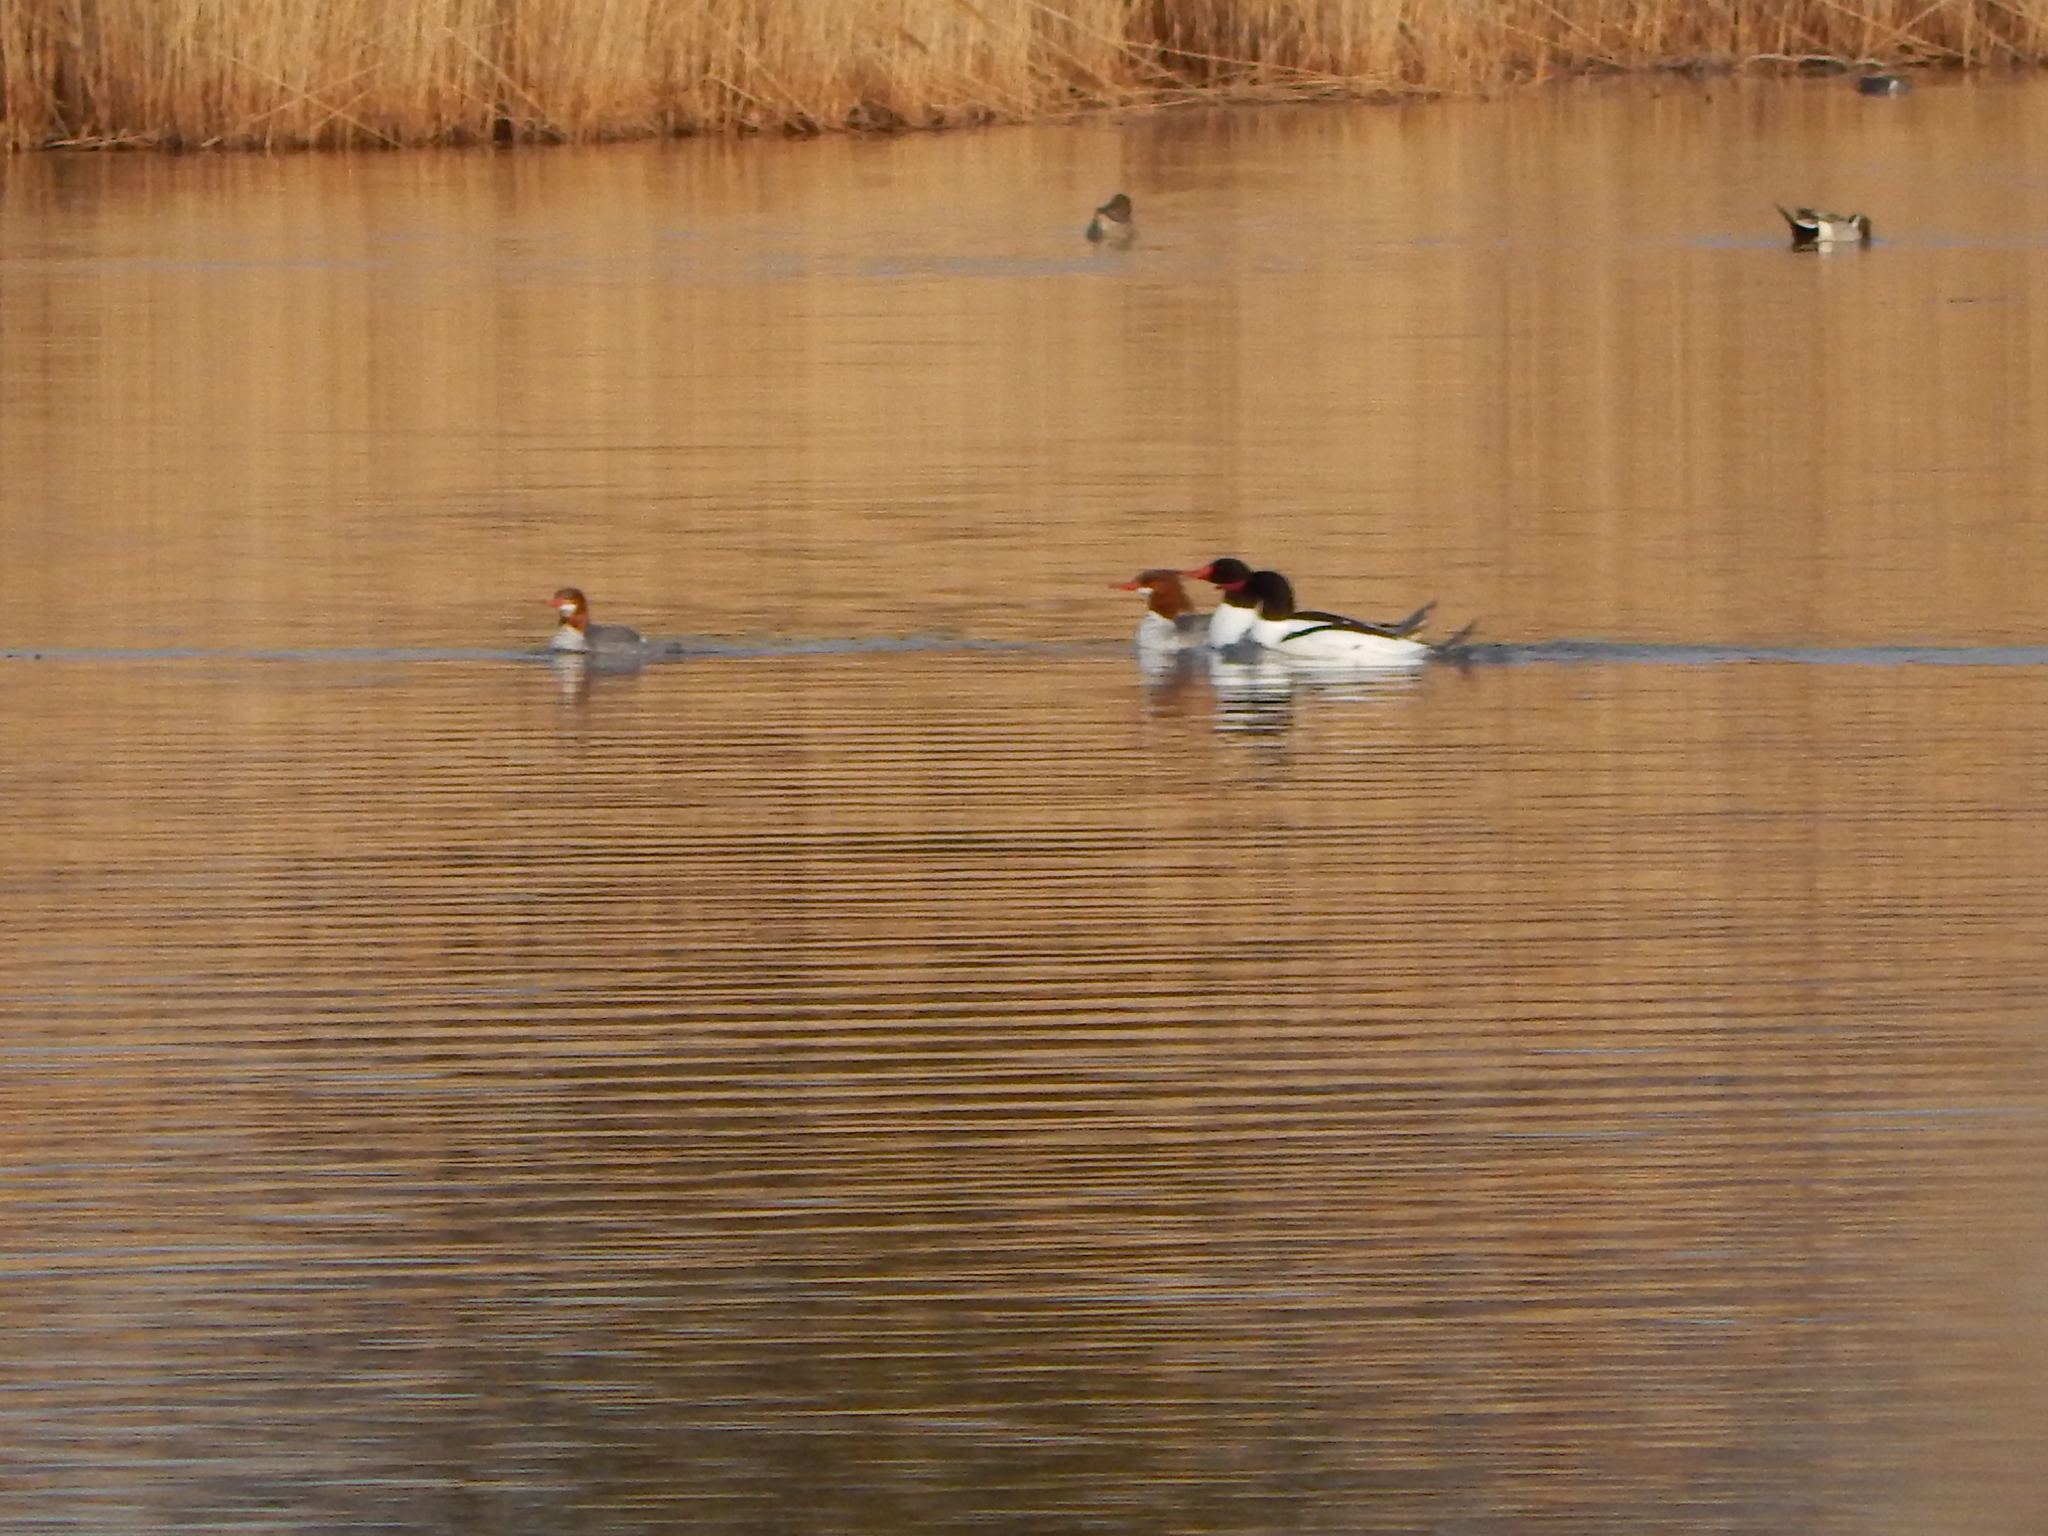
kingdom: Animalia
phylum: Chordata
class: Aves
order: Anseriformes
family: Anatidae
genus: Mergus
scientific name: Mergus merganser
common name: Common merganser
